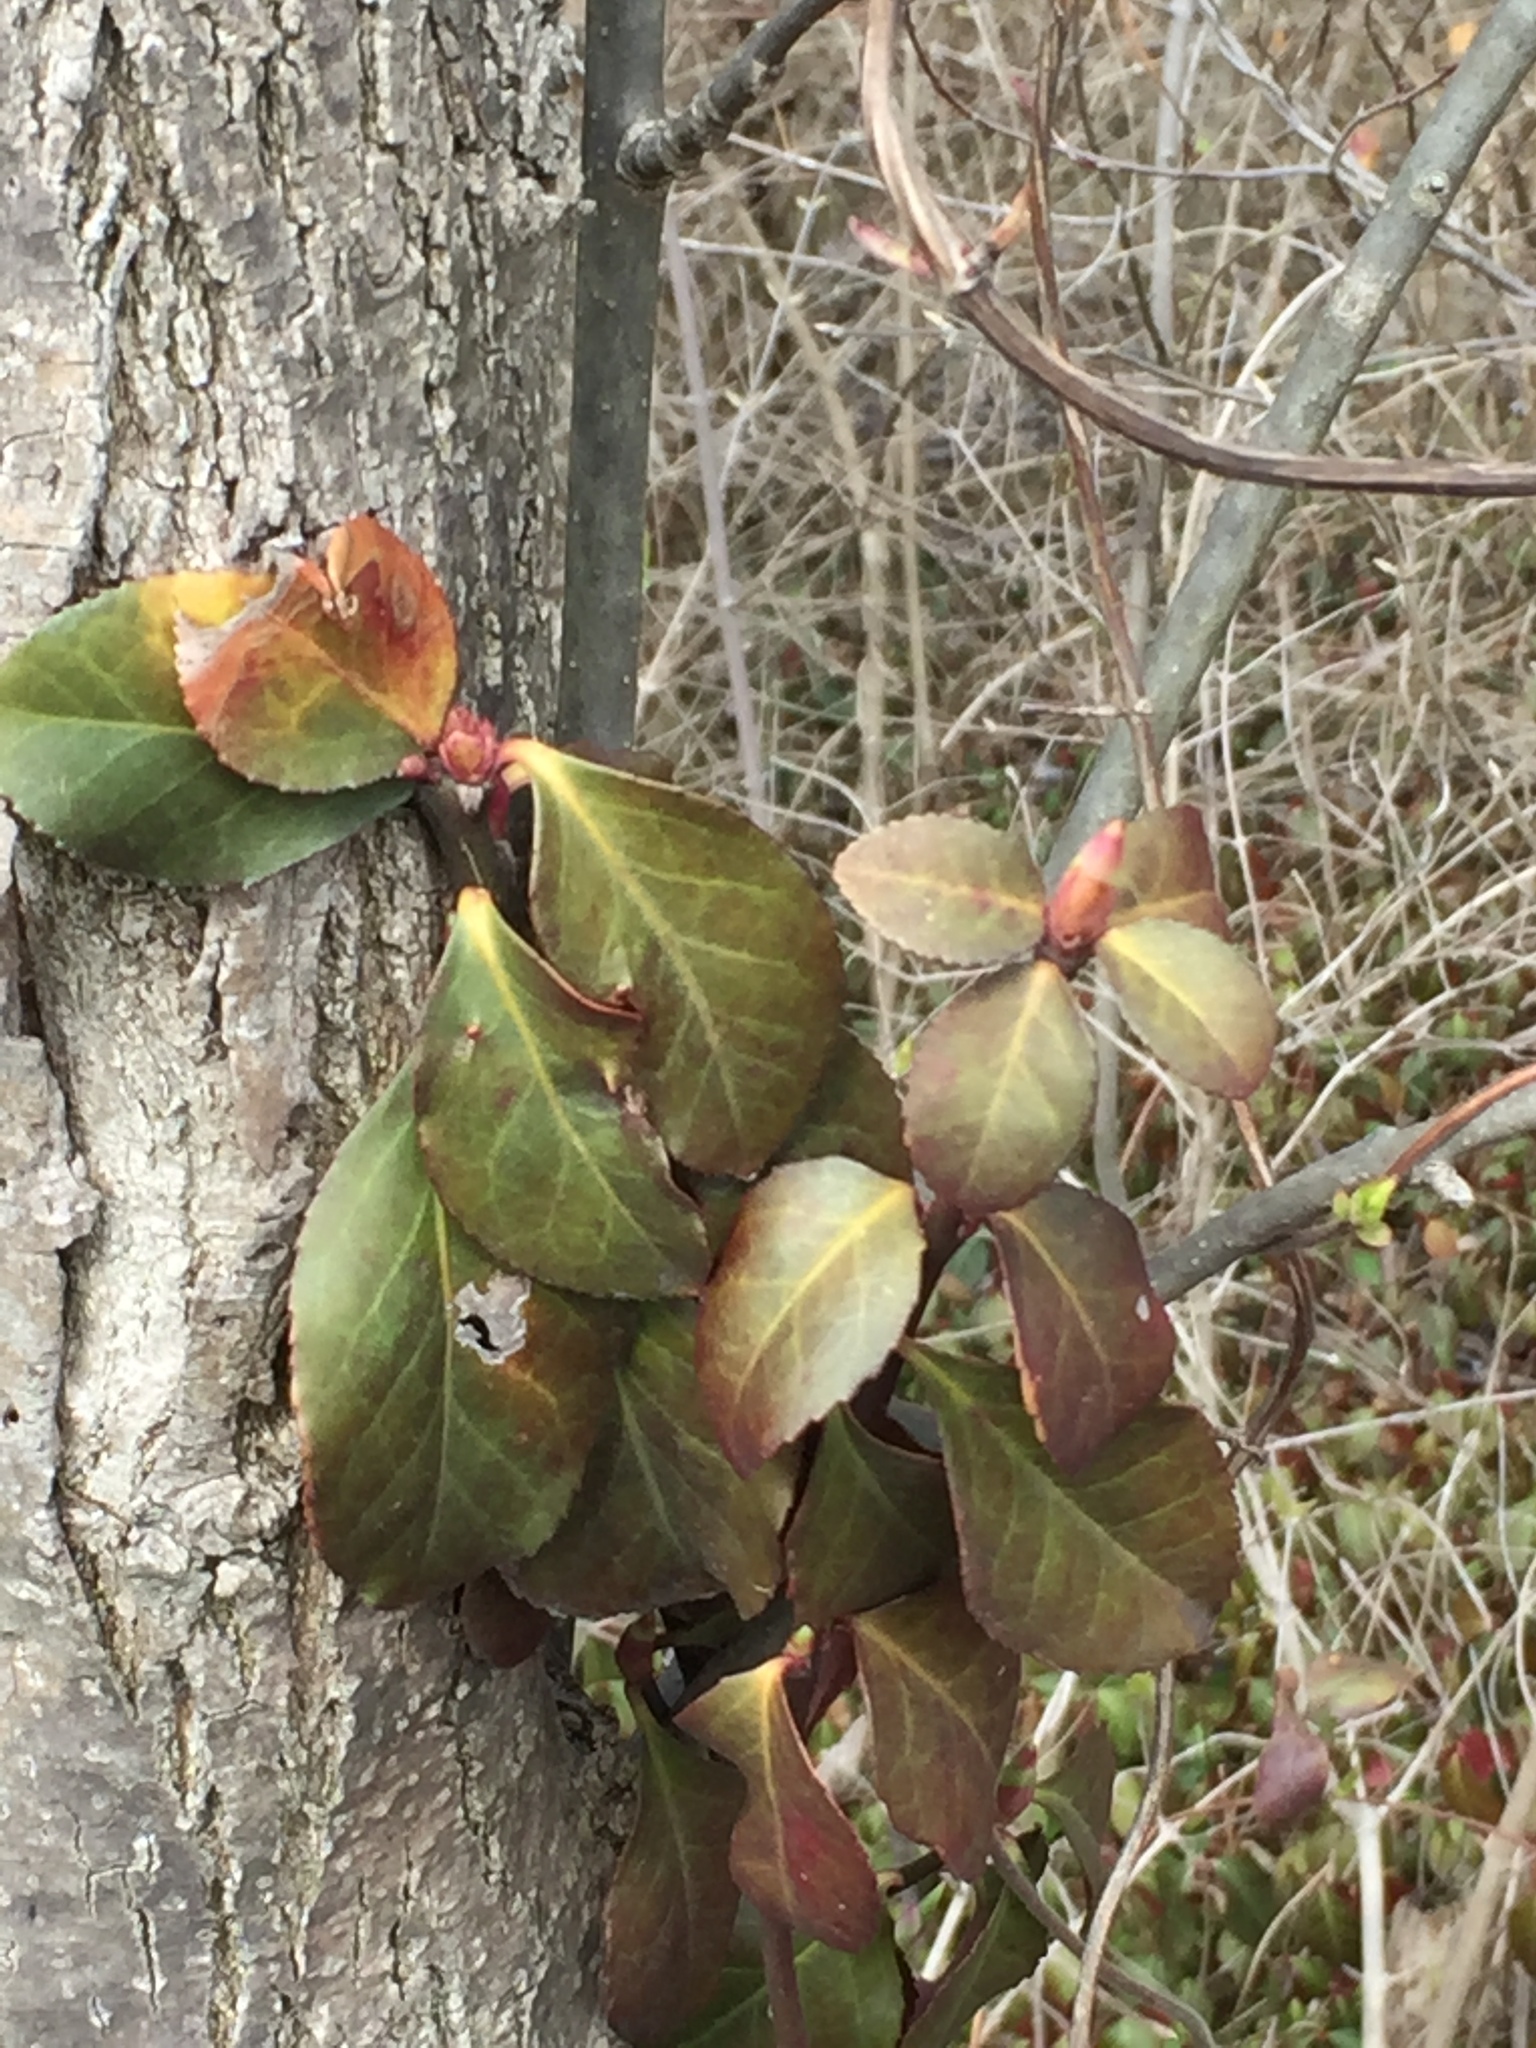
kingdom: Plantae
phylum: Tracheophyta
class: Magnoliopsida
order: Celastrales
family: Celastraceae
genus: Euonymus
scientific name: Euonymus fortunei
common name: Climbing euonymus
